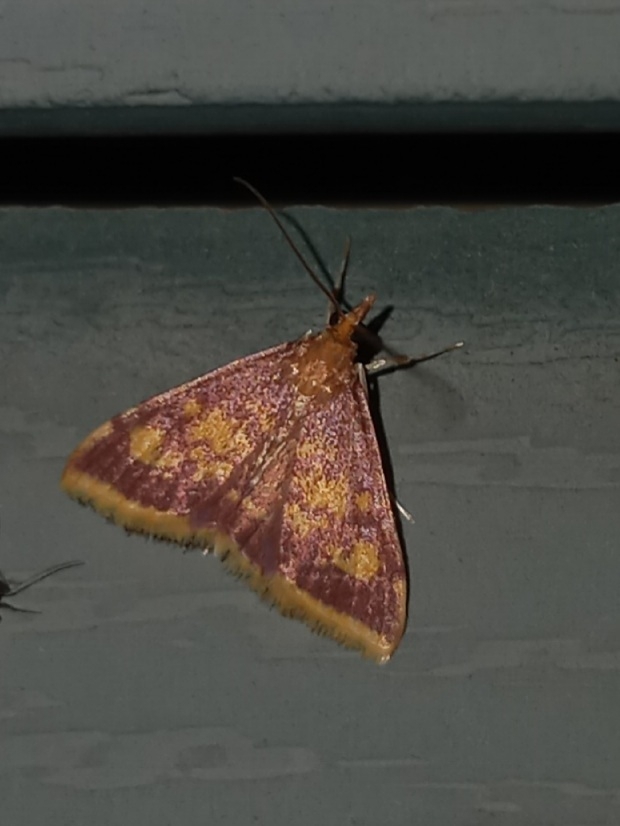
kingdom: Animalia
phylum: Arthropoda
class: Insecta
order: Lepidoptera
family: Crambidae
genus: Pyrausta
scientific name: Pyrausta acrionalis
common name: Mint-loving pyrausta moth
